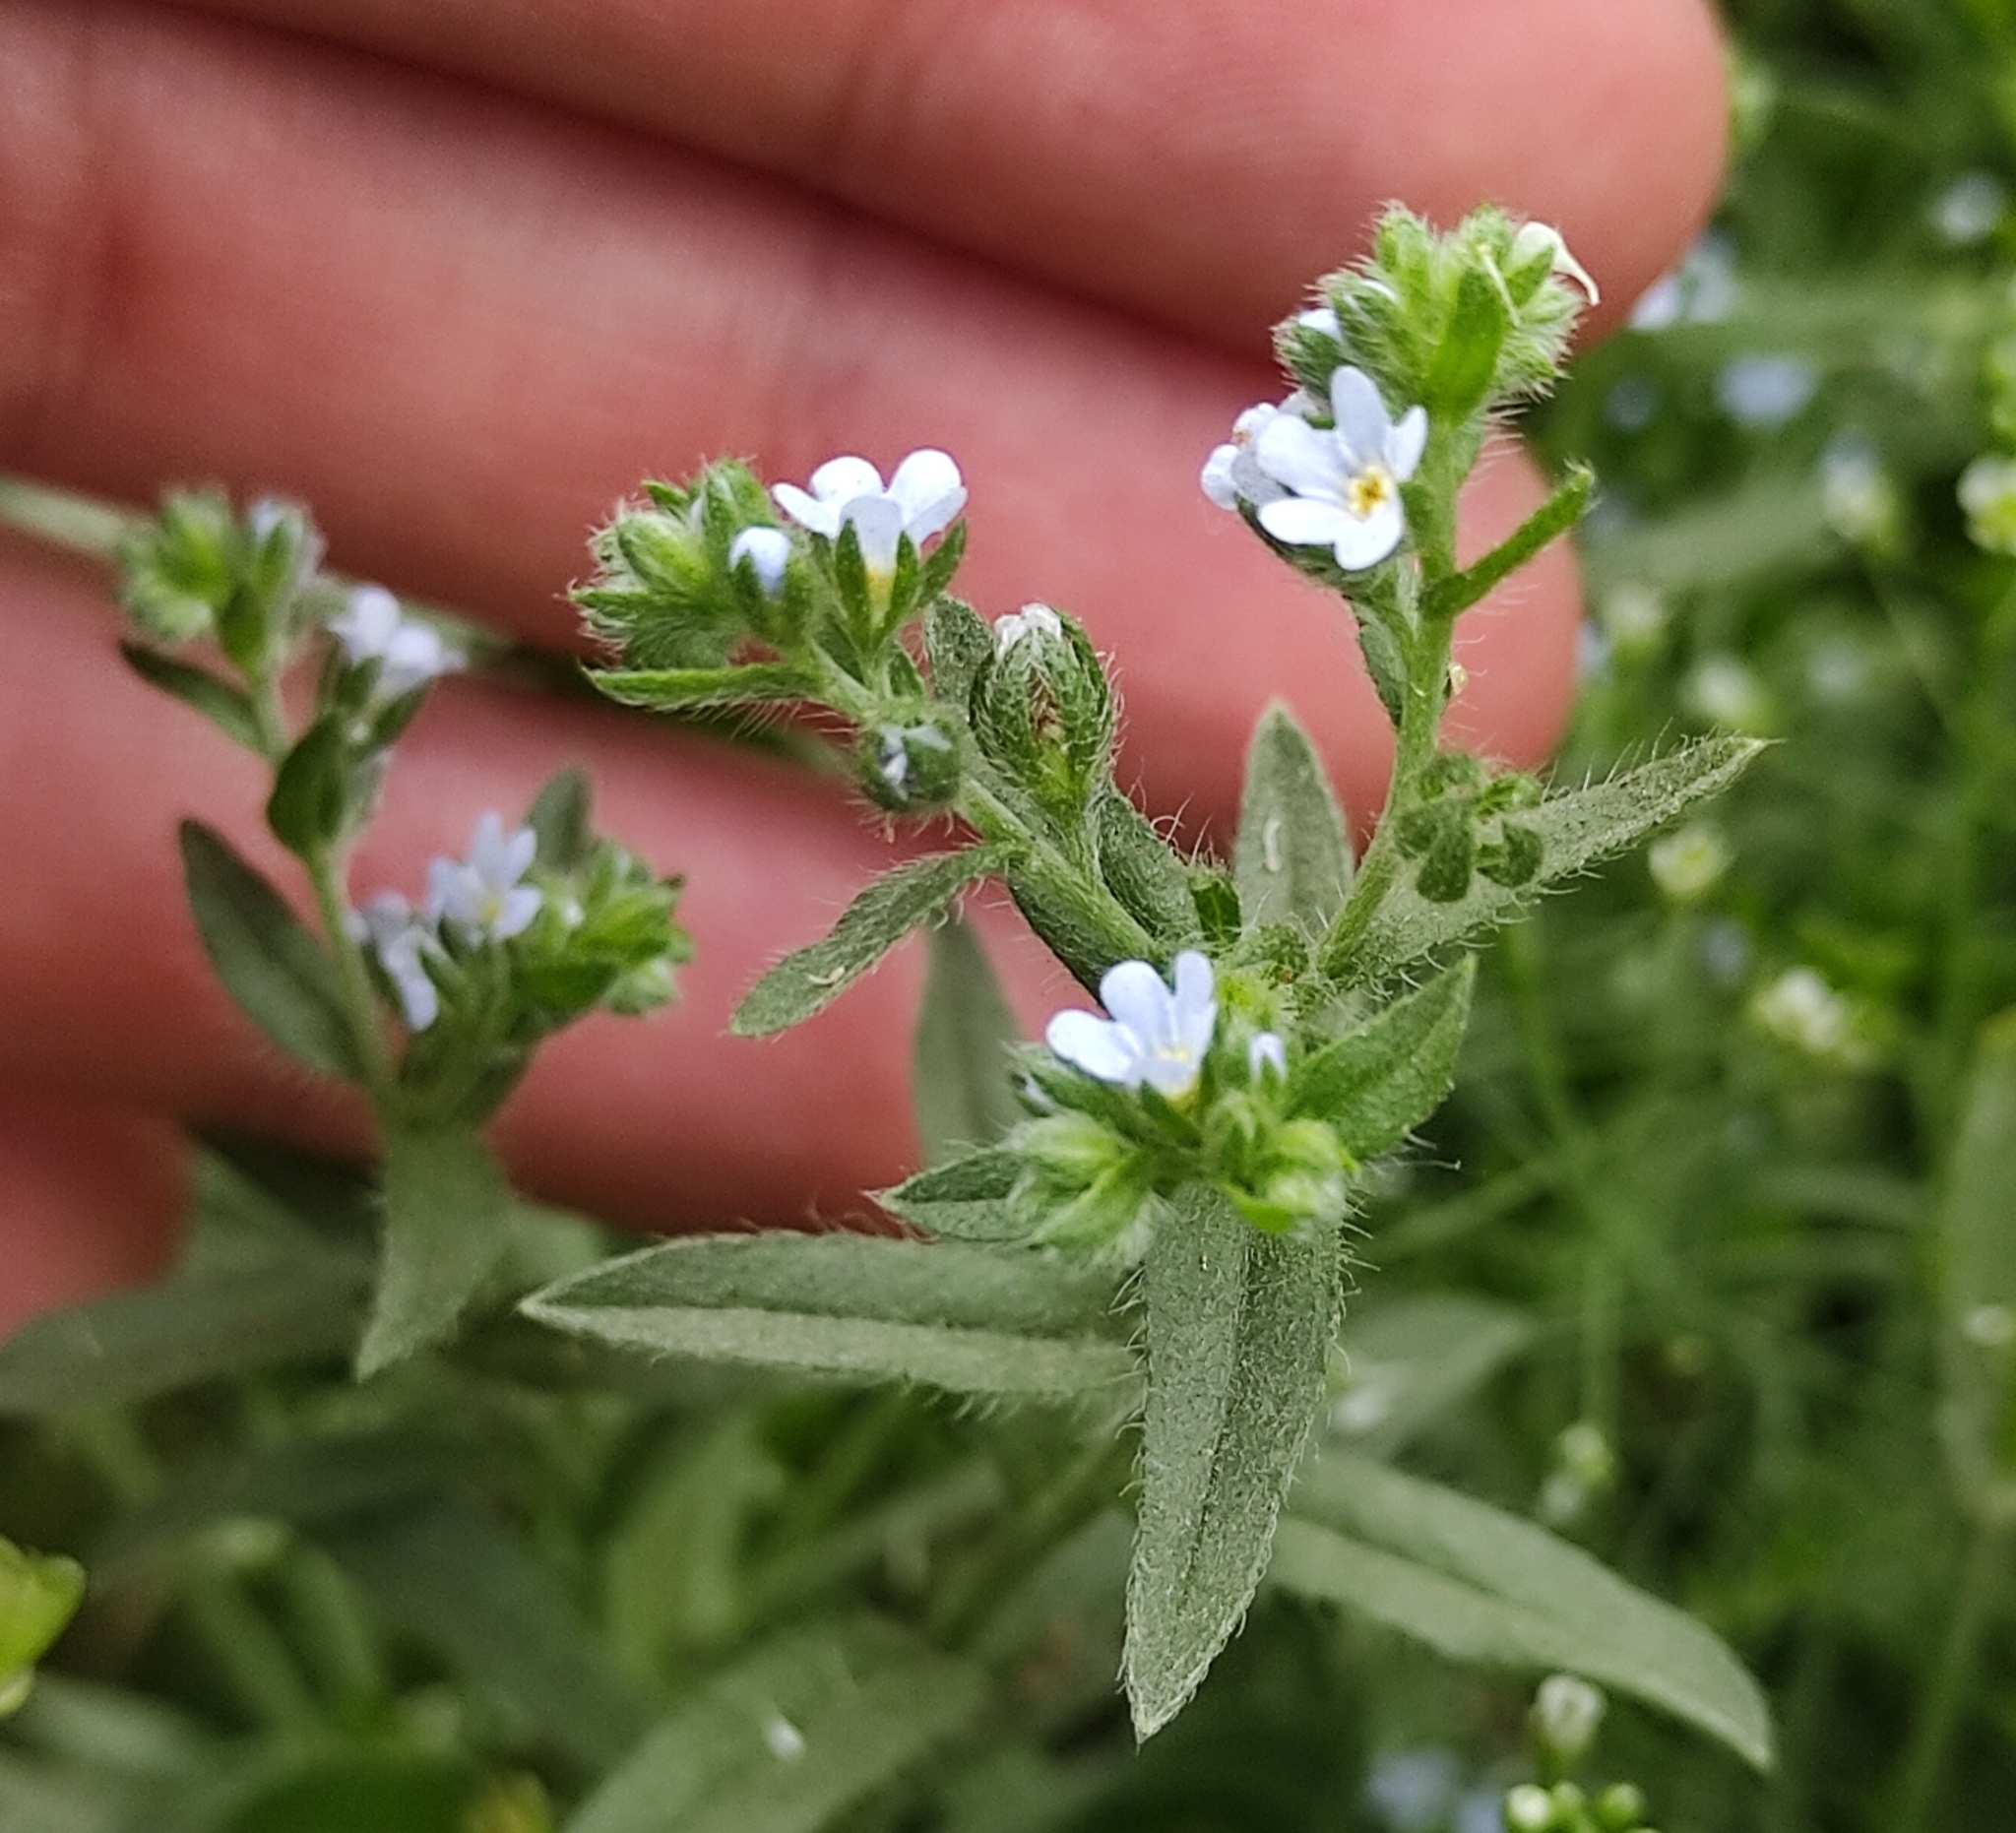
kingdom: Plantae
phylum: Tracheophyta
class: Magnoliopsida
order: Boraginales
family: Boraginaceae
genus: Lappula
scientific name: Lappula squarrosa
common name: European stickseed
